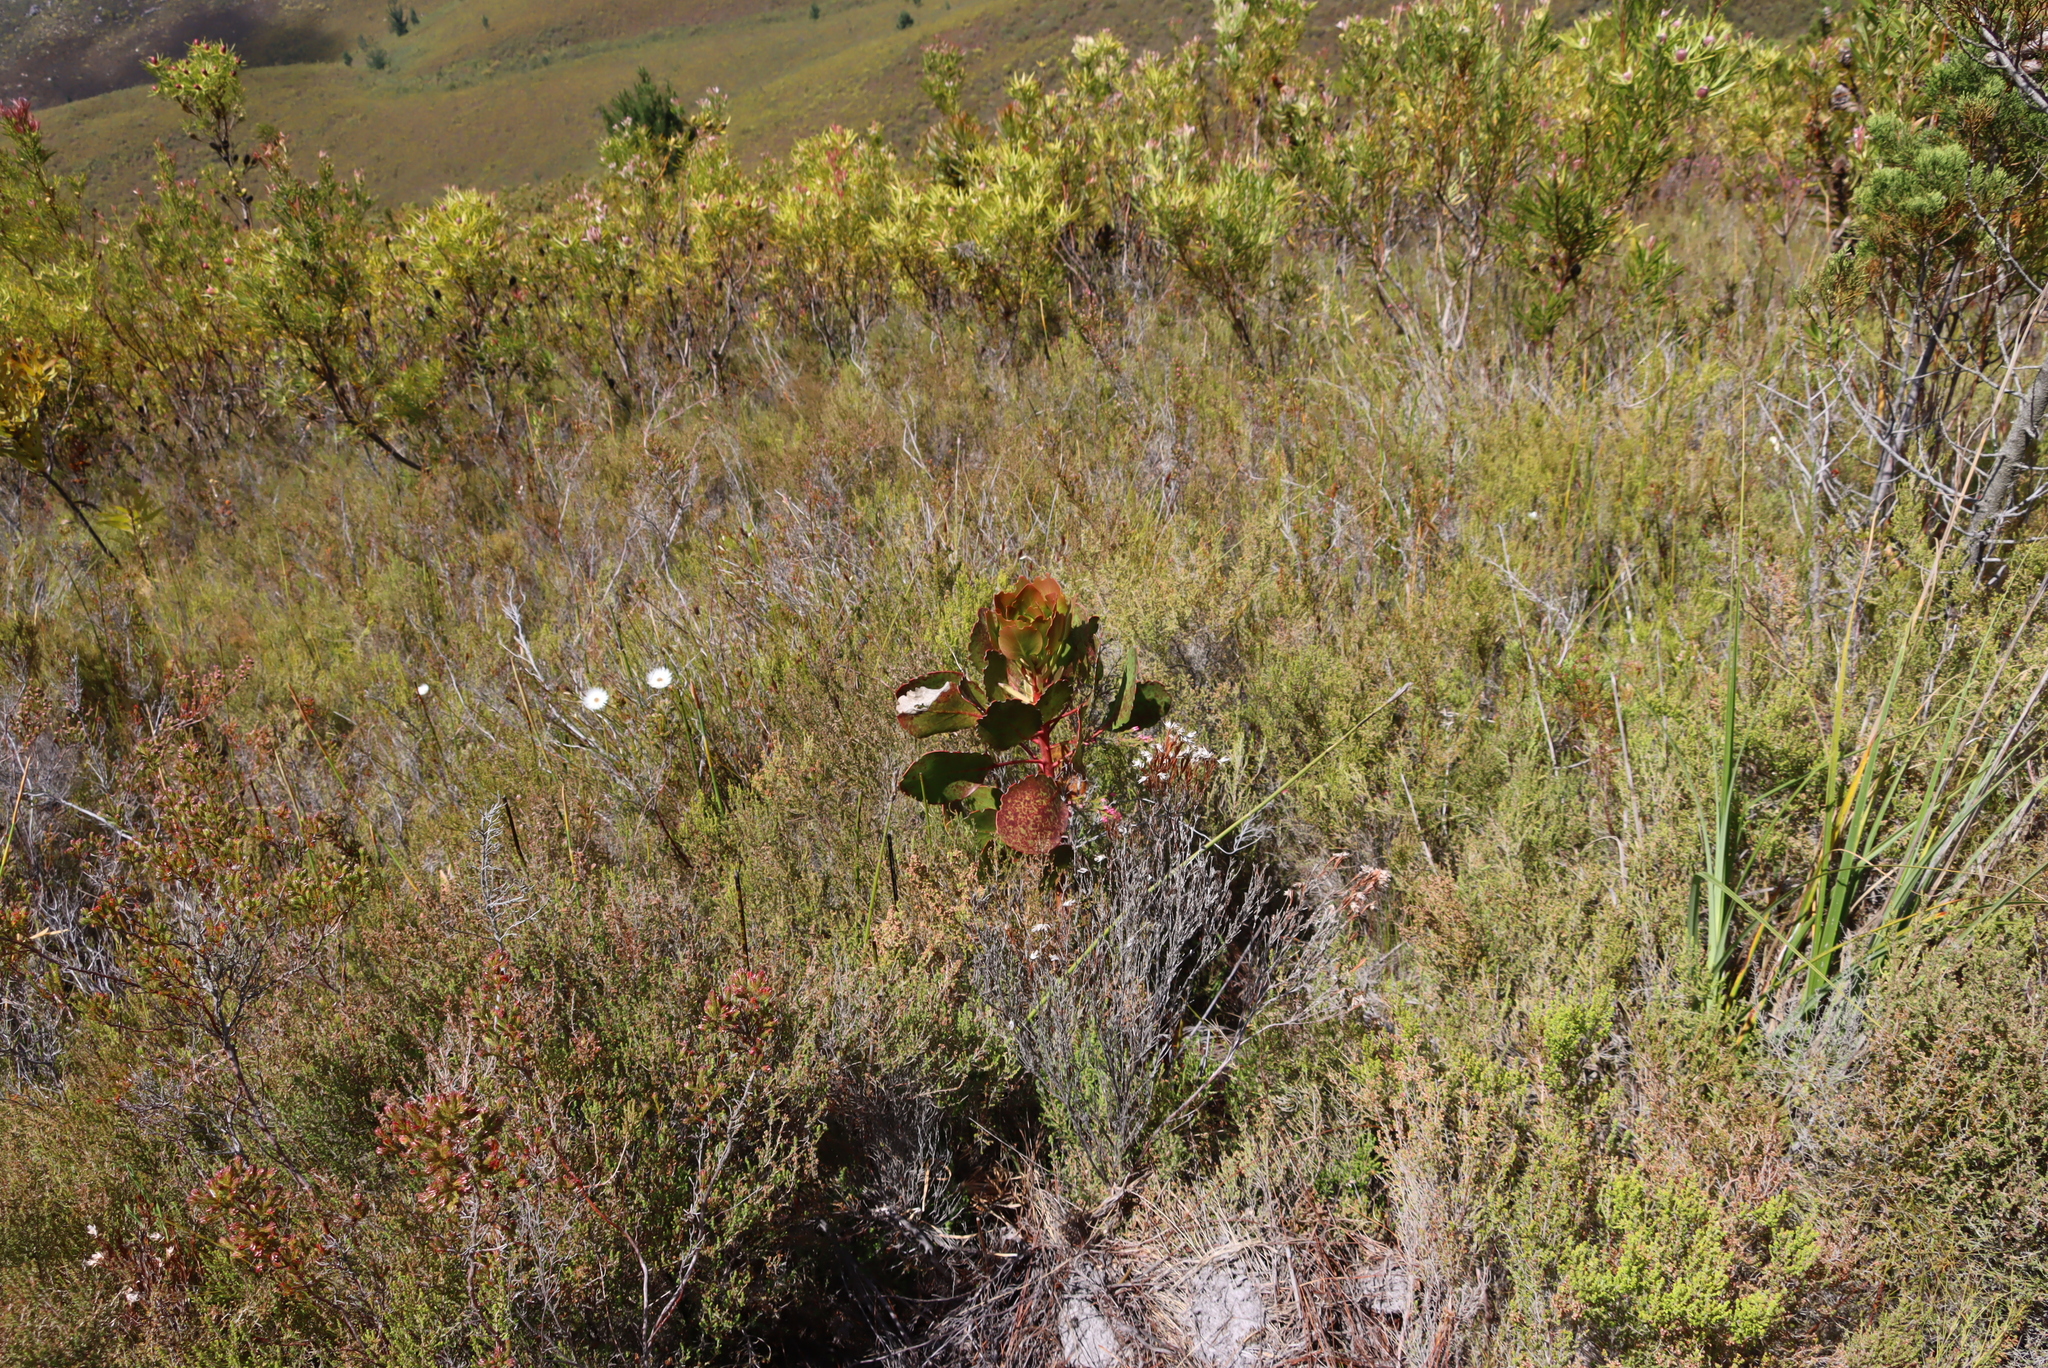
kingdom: Plantae
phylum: Tracheophyta
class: Magnoliopsida
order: Proteales
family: Proteaceae
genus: Protea
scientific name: Protea cynaroides
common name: King protea
